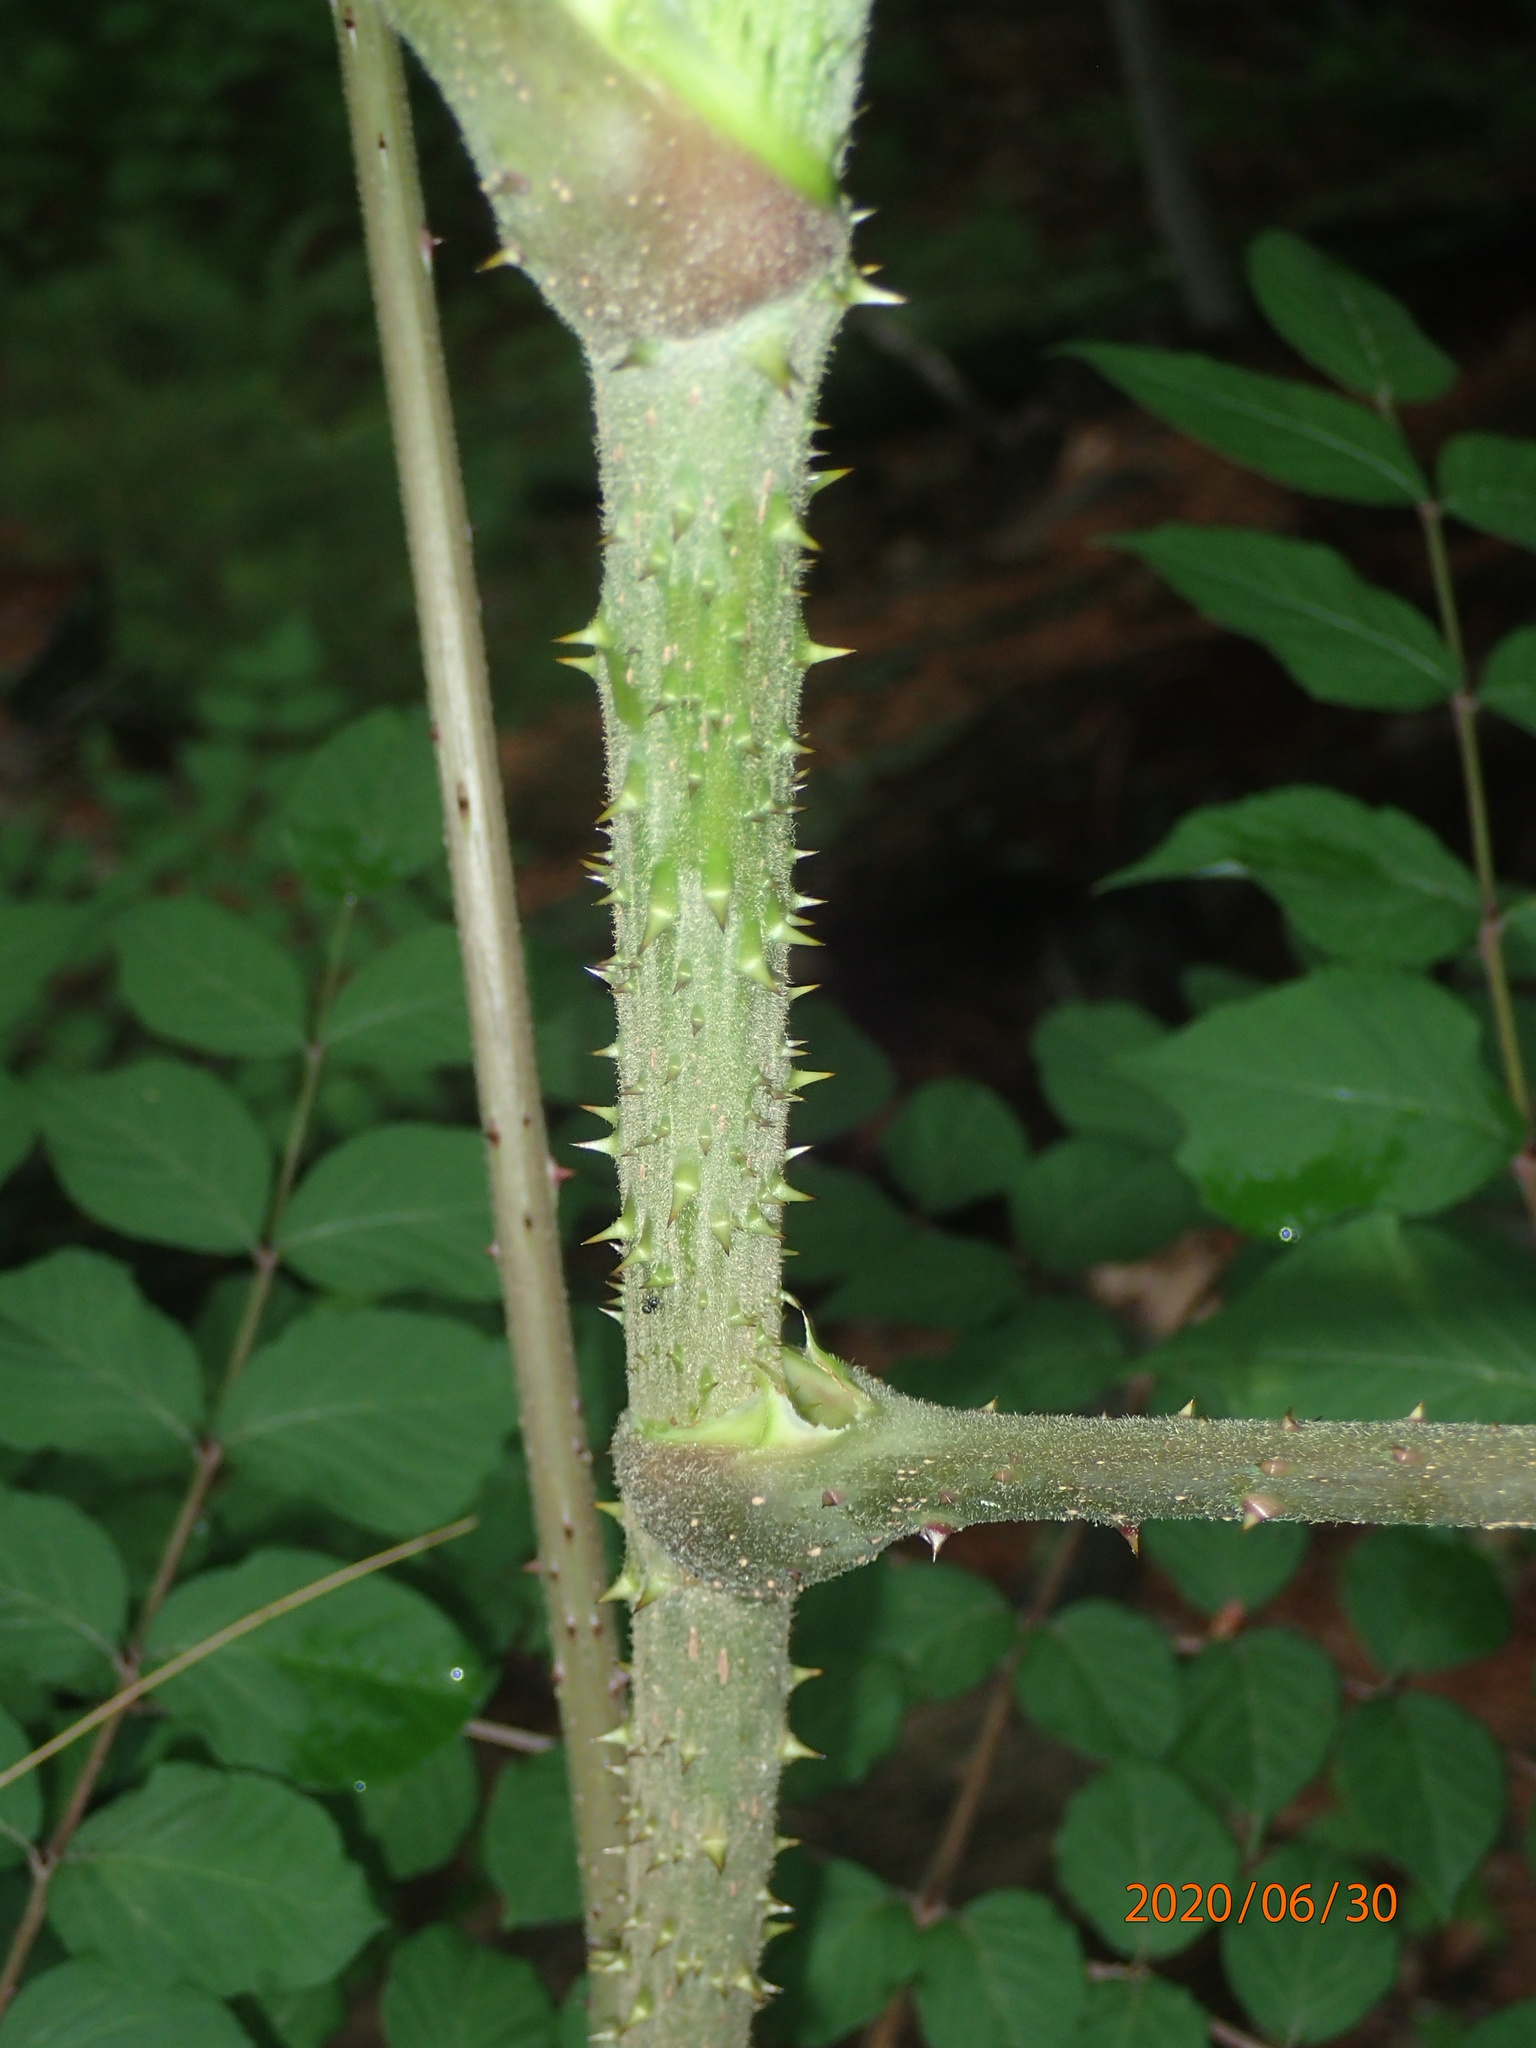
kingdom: Plantae
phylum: Tracheophyta
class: Magnoliopsida
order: Apiales
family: Araliaceae
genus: Aralia
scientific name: Aralia elata
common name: Japanese angelica-tree
